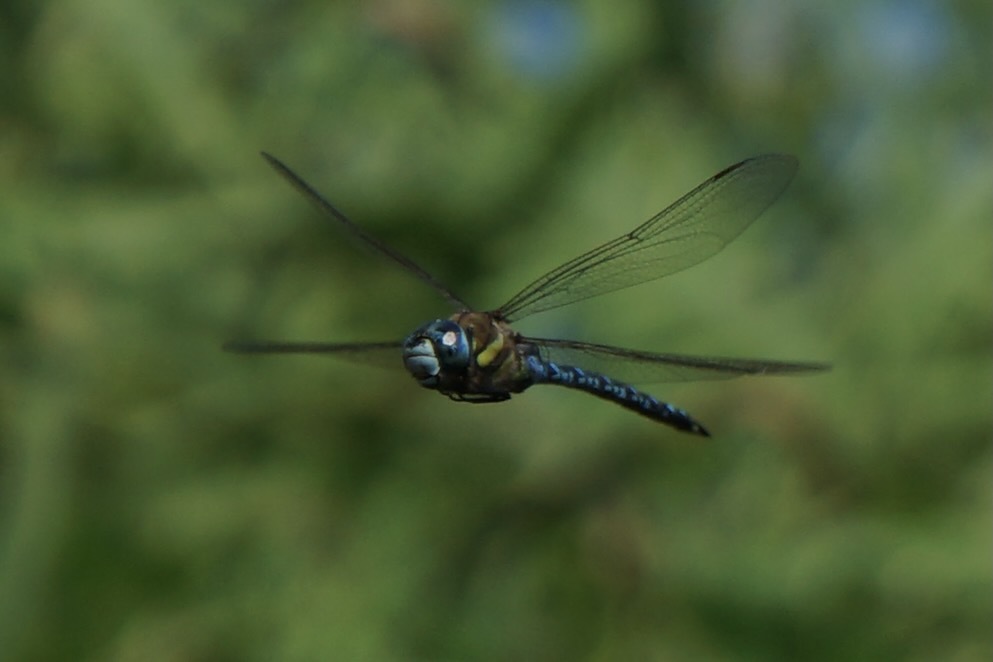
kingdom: Animalia
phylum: Arthropoda
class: Insecta
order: Odonata
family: Aeshnidae
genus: Aeshna
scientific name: Aeshna soneharai
